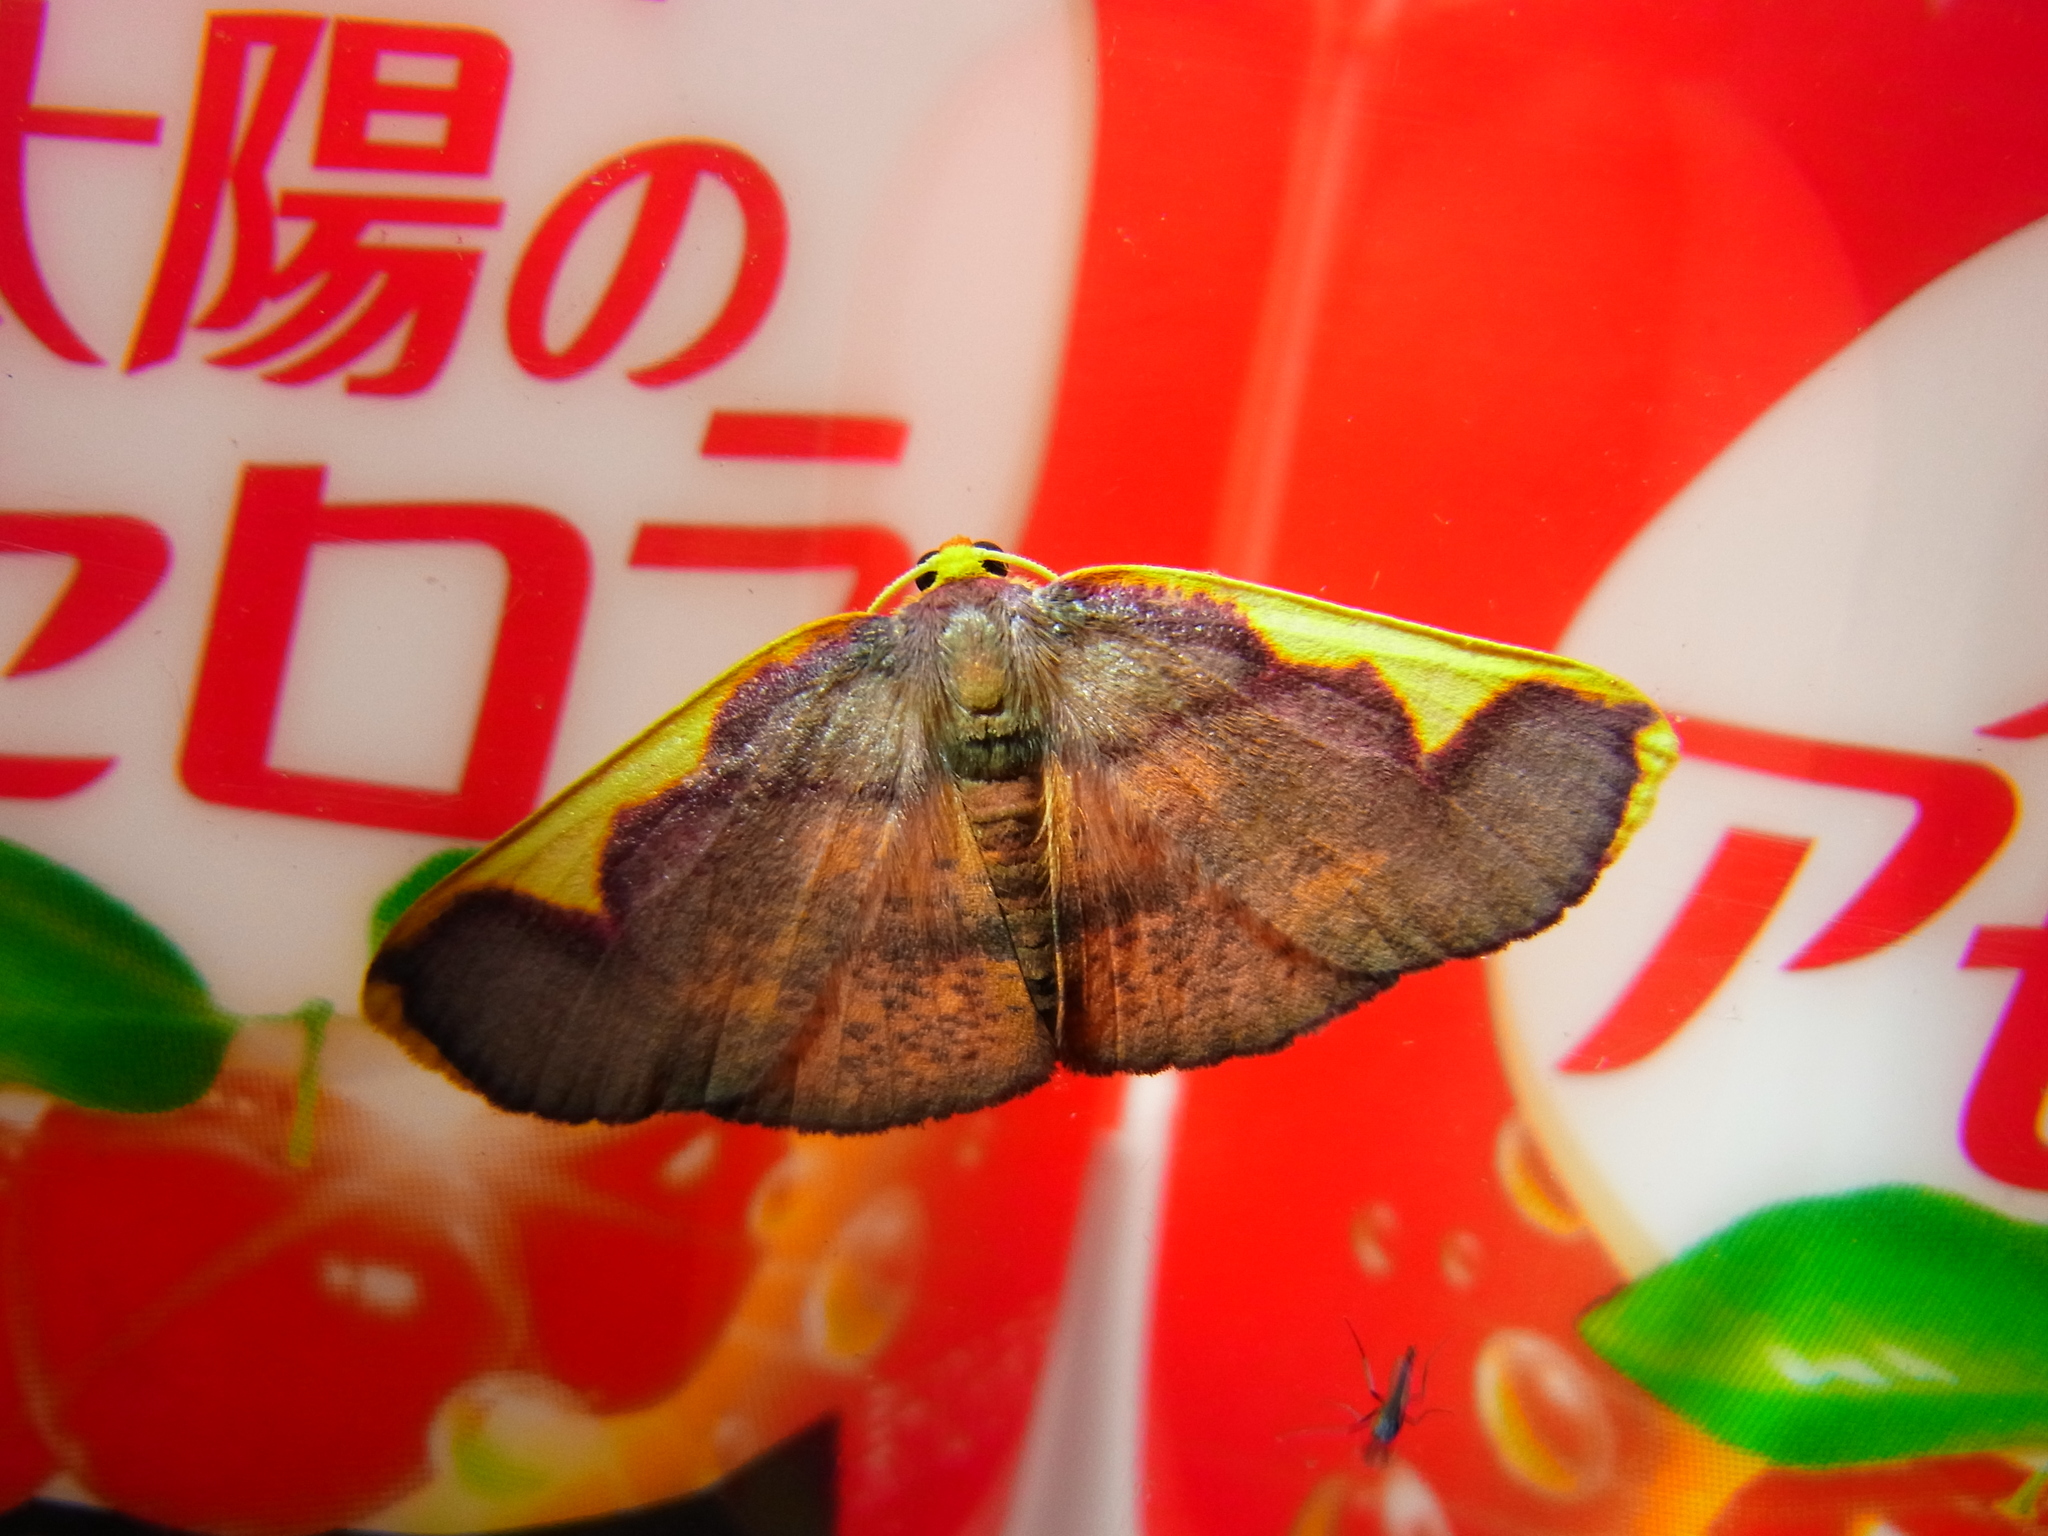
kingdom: Animalia
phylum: Arthropoda
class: Insecta
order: Lepidoptera
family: Geometridae
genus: Nothomiza
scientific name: Nothomiza formosa
